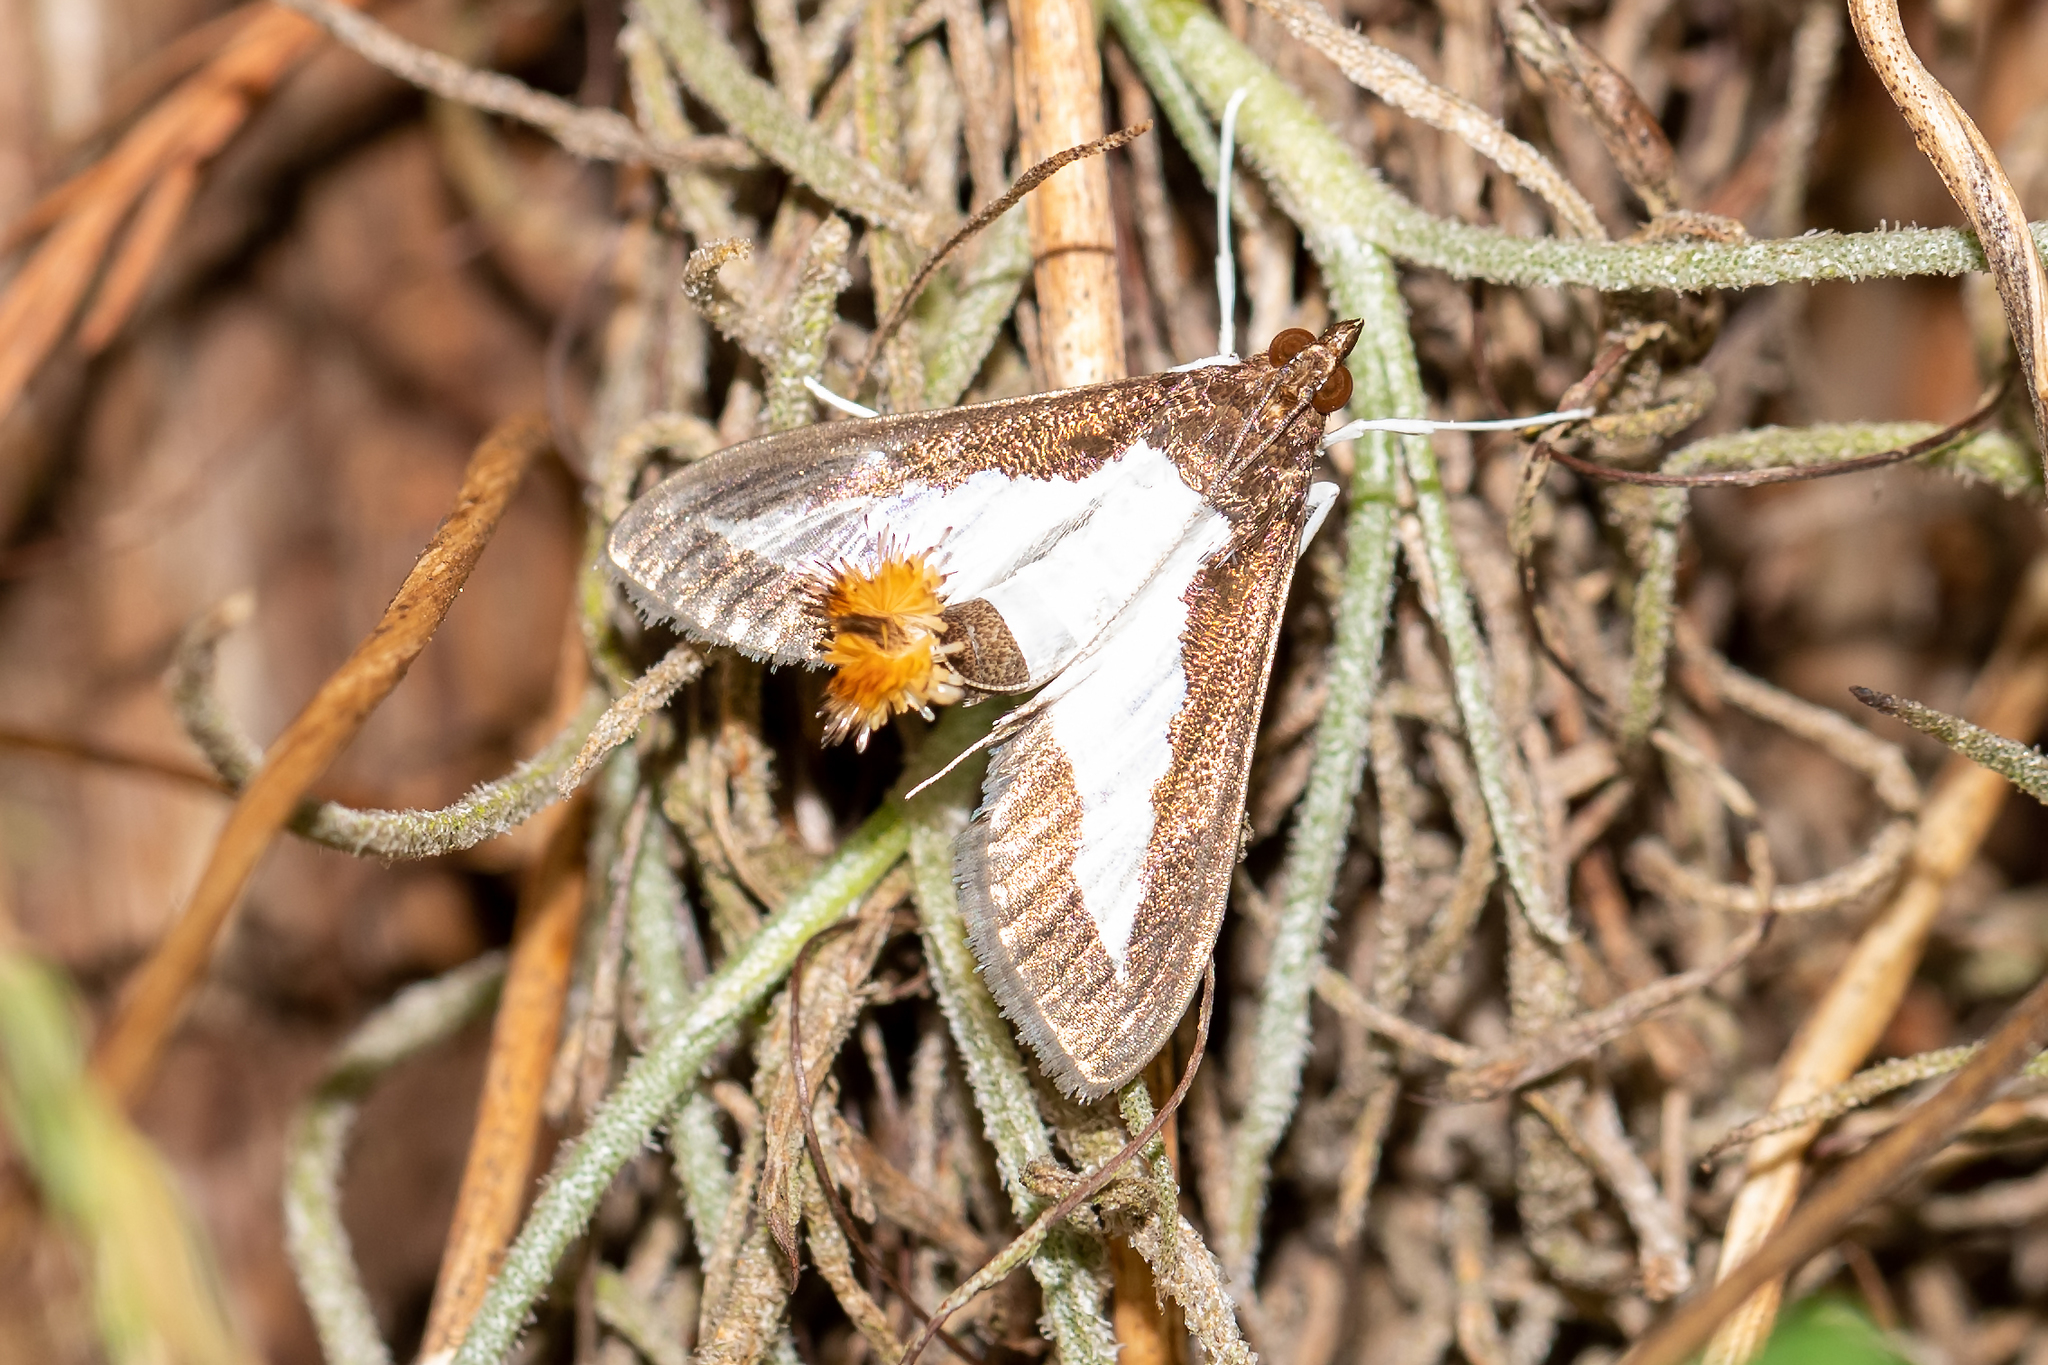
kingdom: Animalia
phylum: Arthropoda
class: Insecta
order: Lepidoptera
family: Crambidae
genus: Diaphania
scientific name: Diaphania hyalinata
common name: Melonworm
